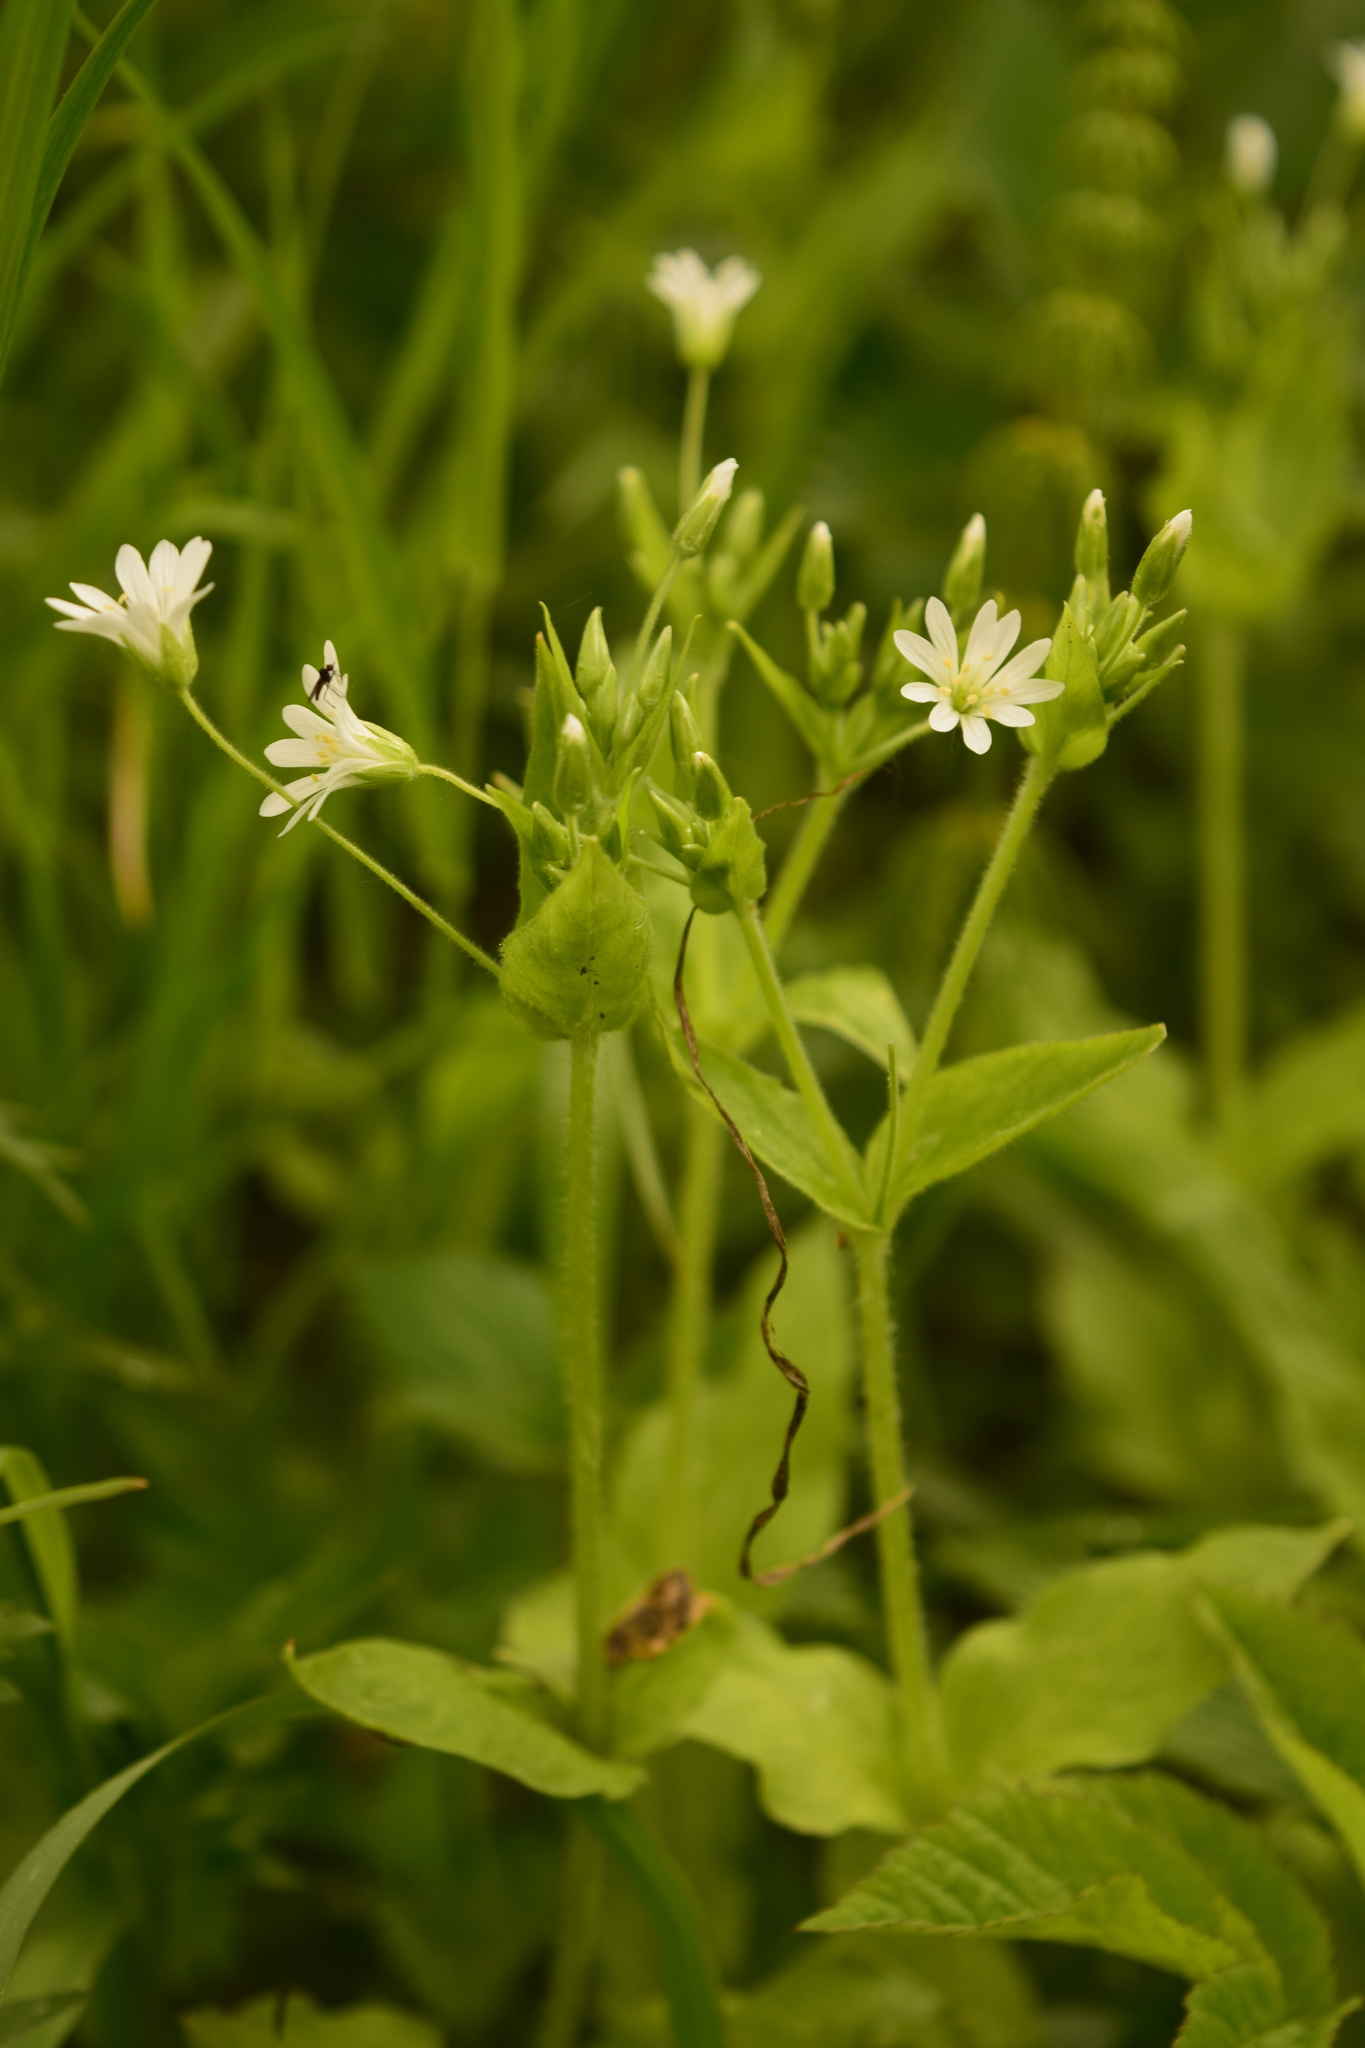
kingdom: Plantae
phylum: Tracheophyta
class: Magnoliopsida
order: Caryophyllales
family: Caryophyllaceae
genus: Stellaria
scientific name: Stellaria nemorum
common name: Wood stitchwort
